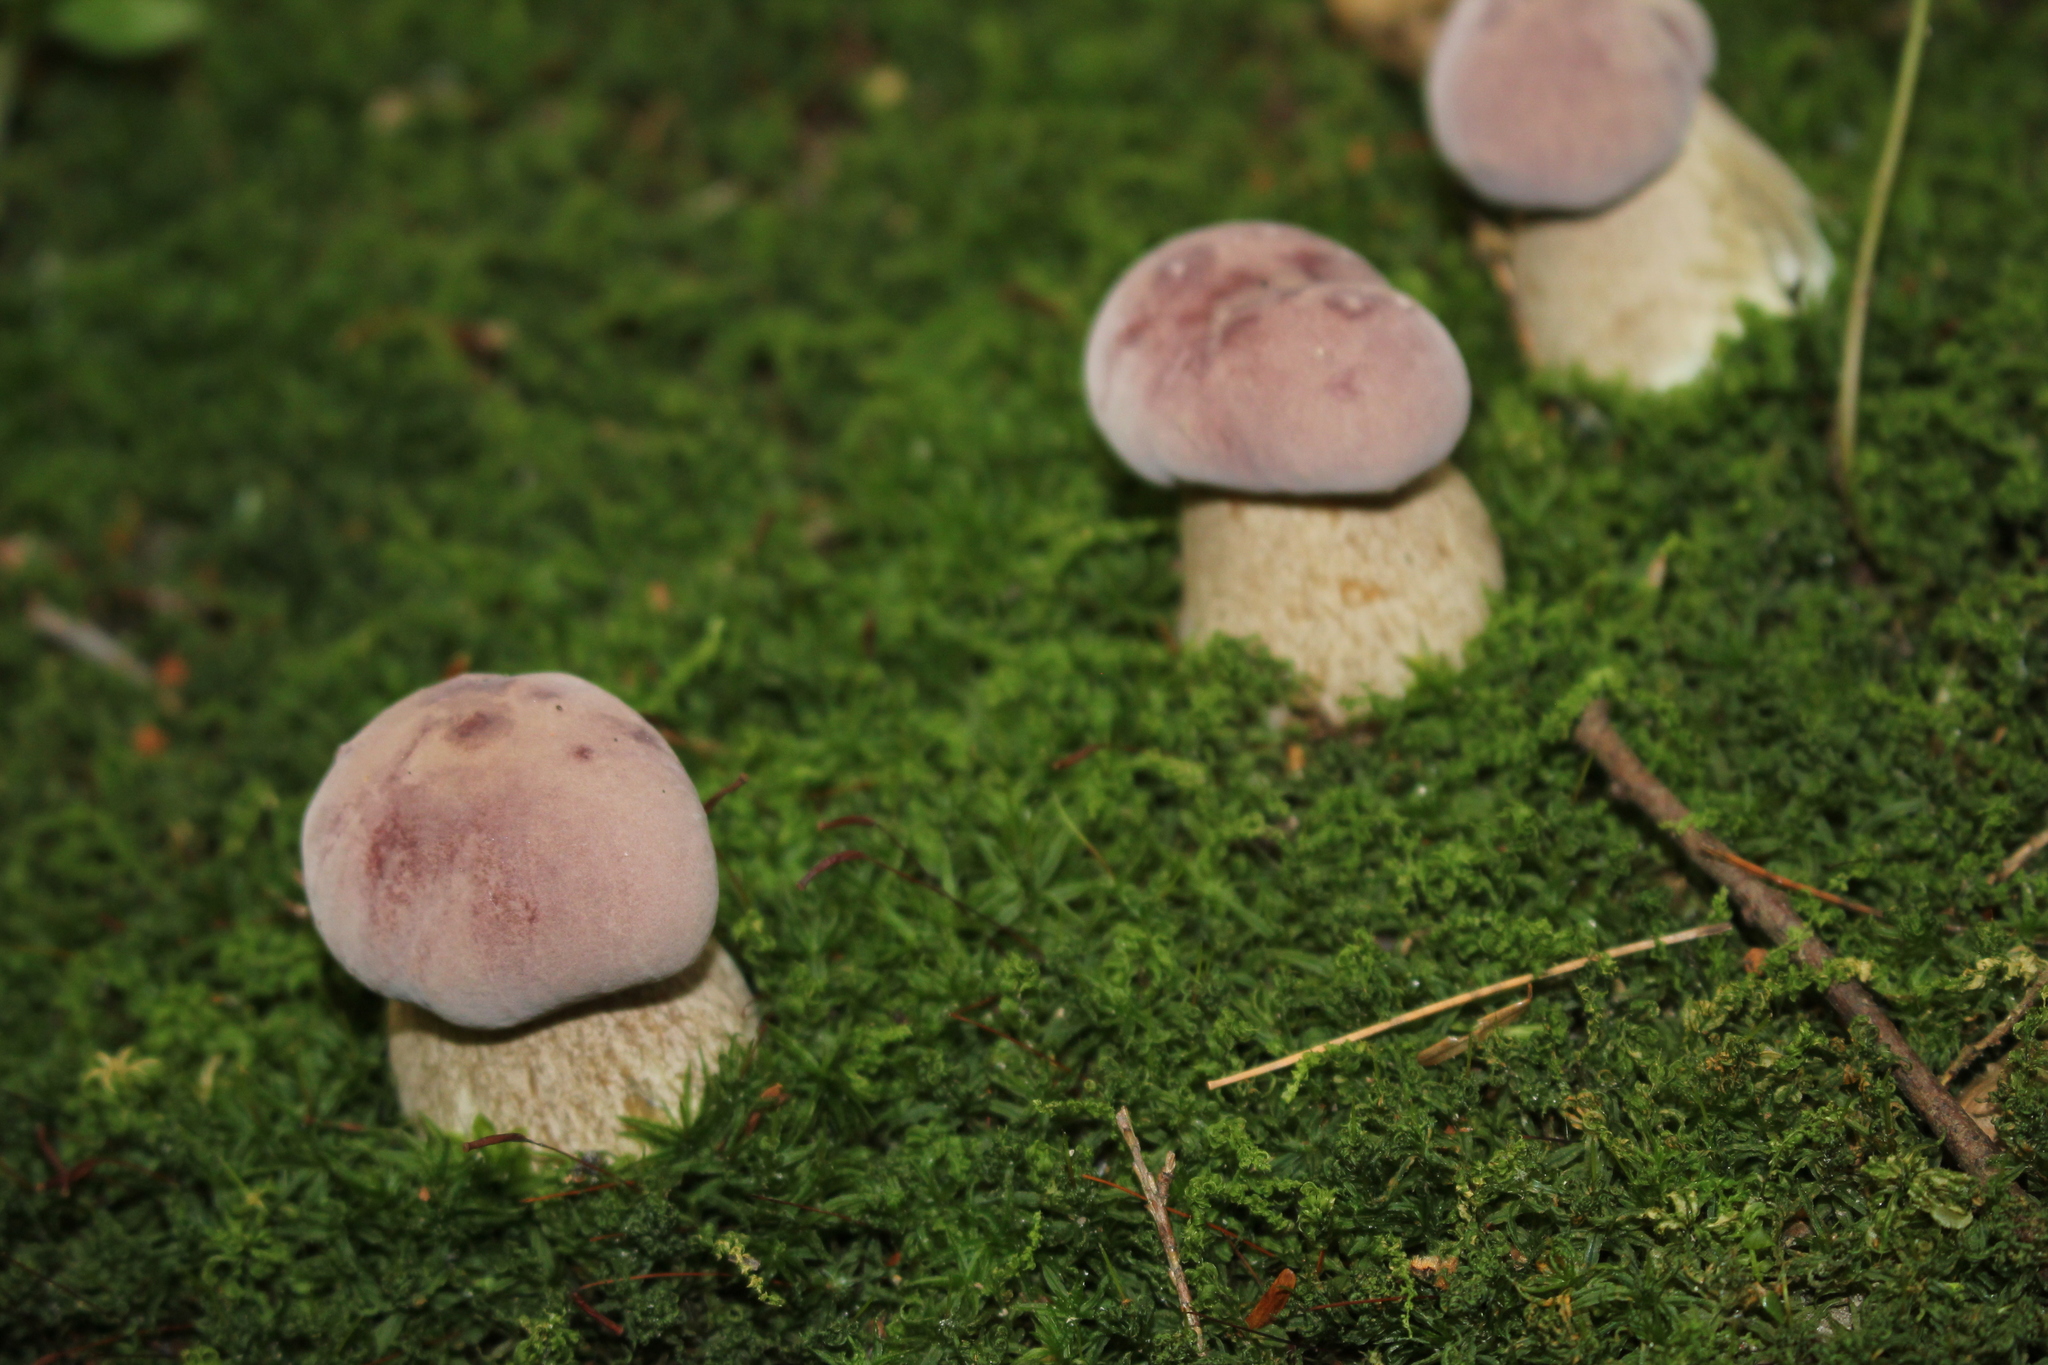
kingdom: Fungi
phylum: Basidiomycota
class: Agaricomycetes
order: Boletales
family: Boletaceae
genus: Tylopilus
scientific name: Tylopilus rubrobrunneus
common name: Reddish brown bitter bolete
